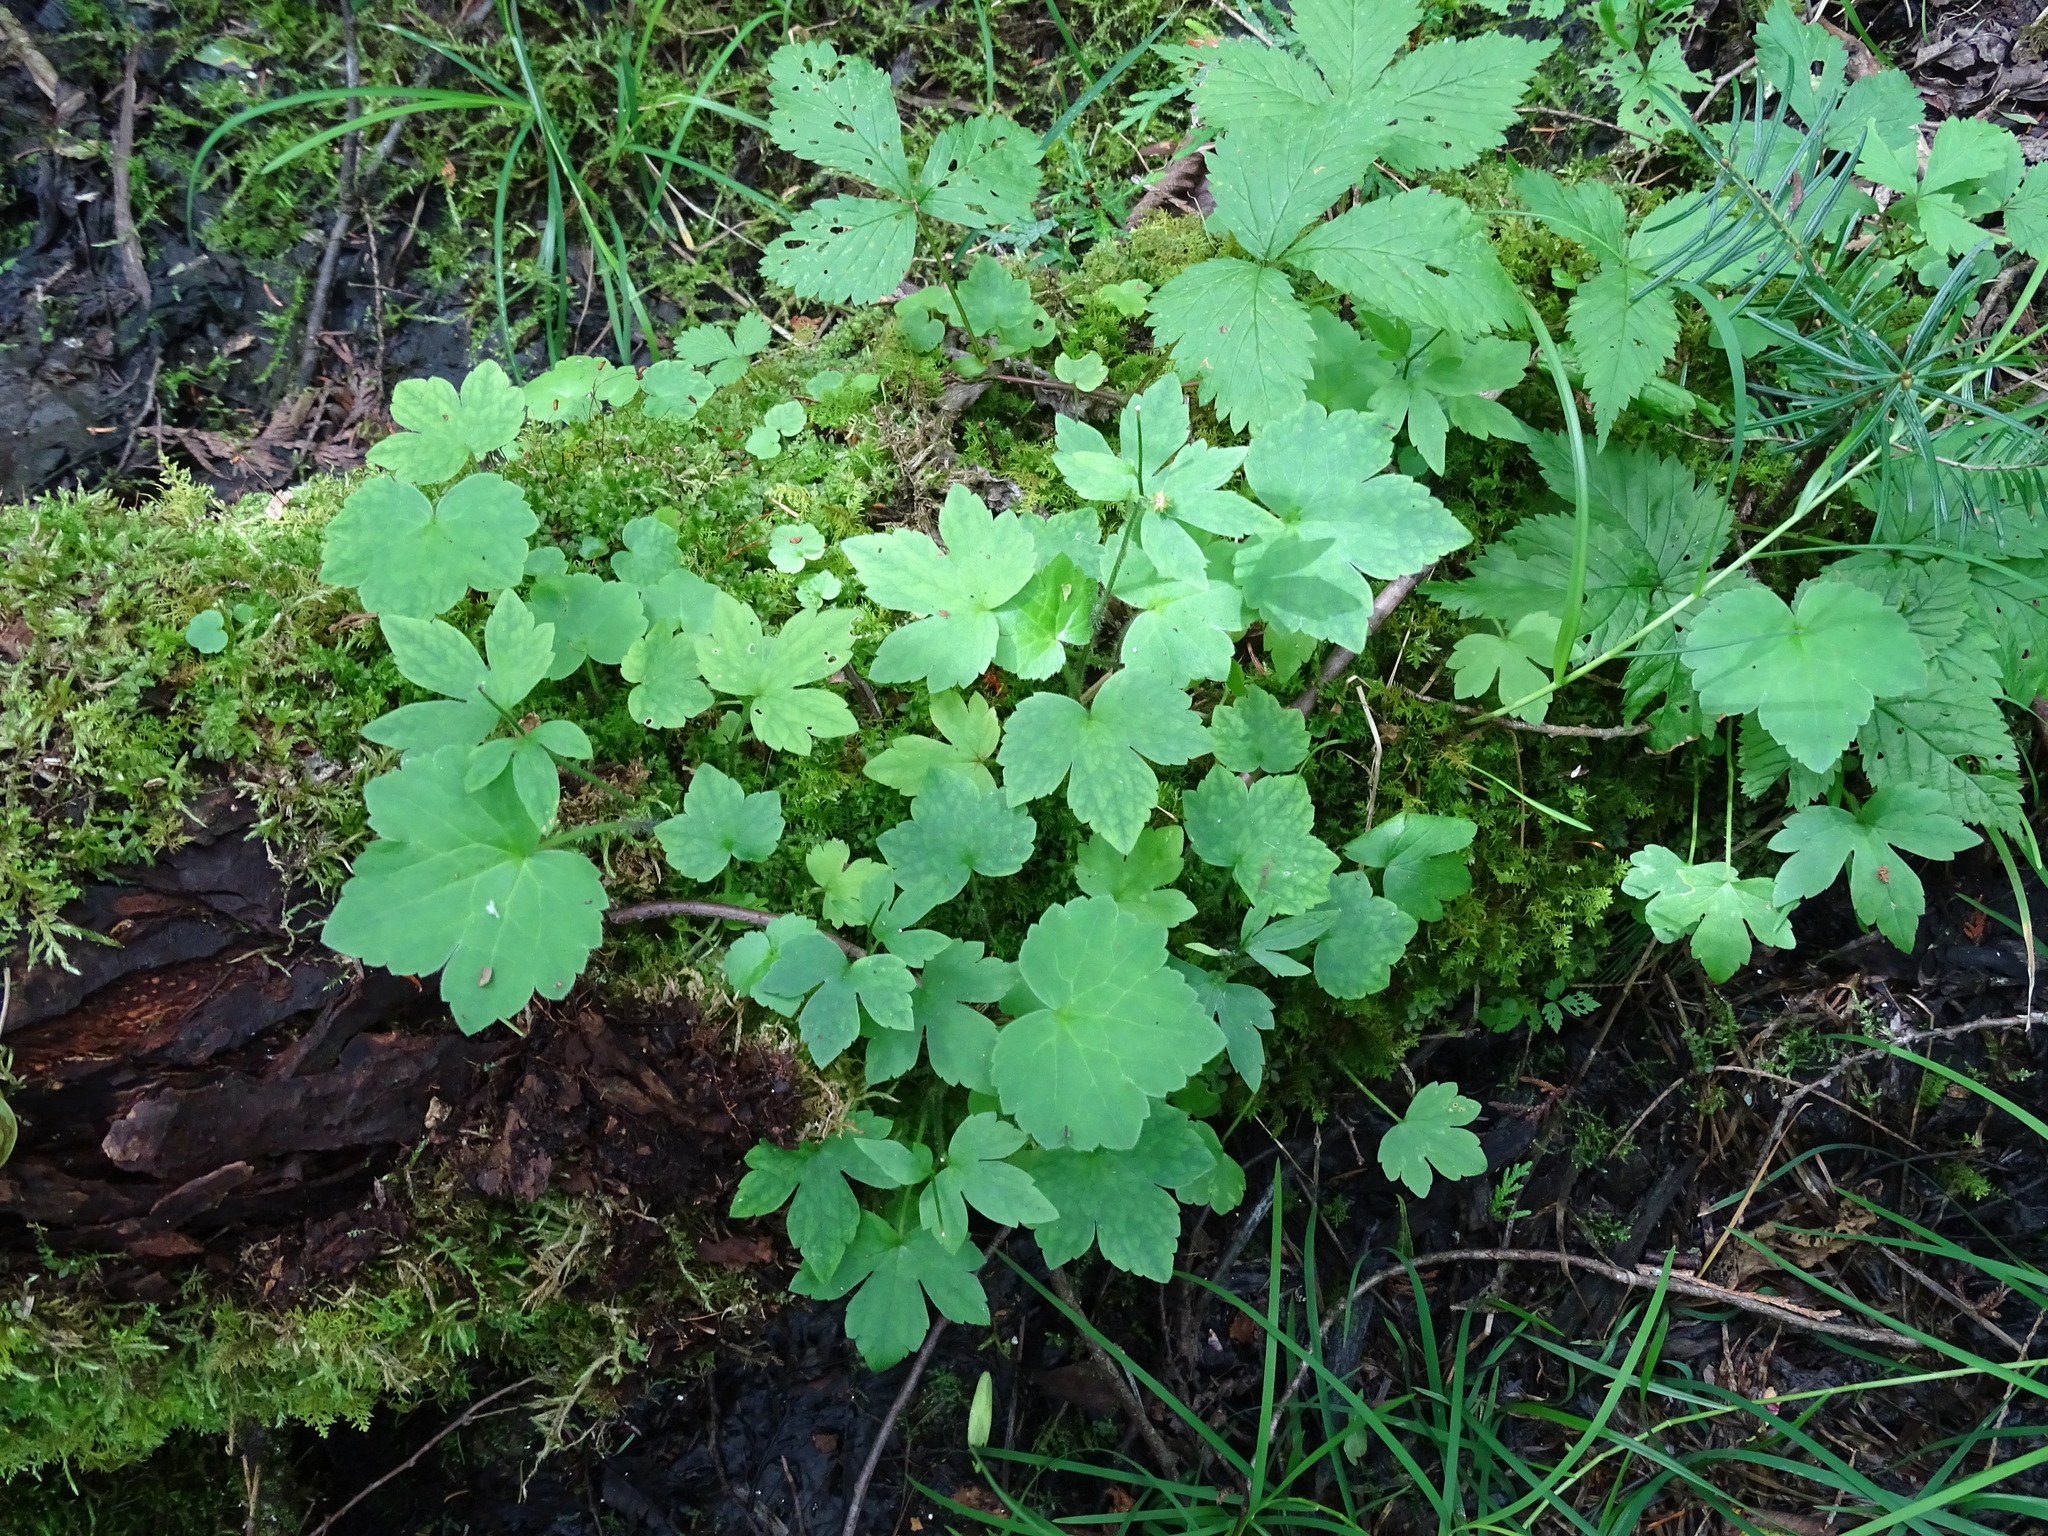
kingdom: Plantae
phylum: Tracheophyta
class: Magnoliopsida
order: Ranunculales
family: Ranunculaceae
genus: Ranunculus
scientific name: Ranunculus recurvatus
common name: Blisterwort
